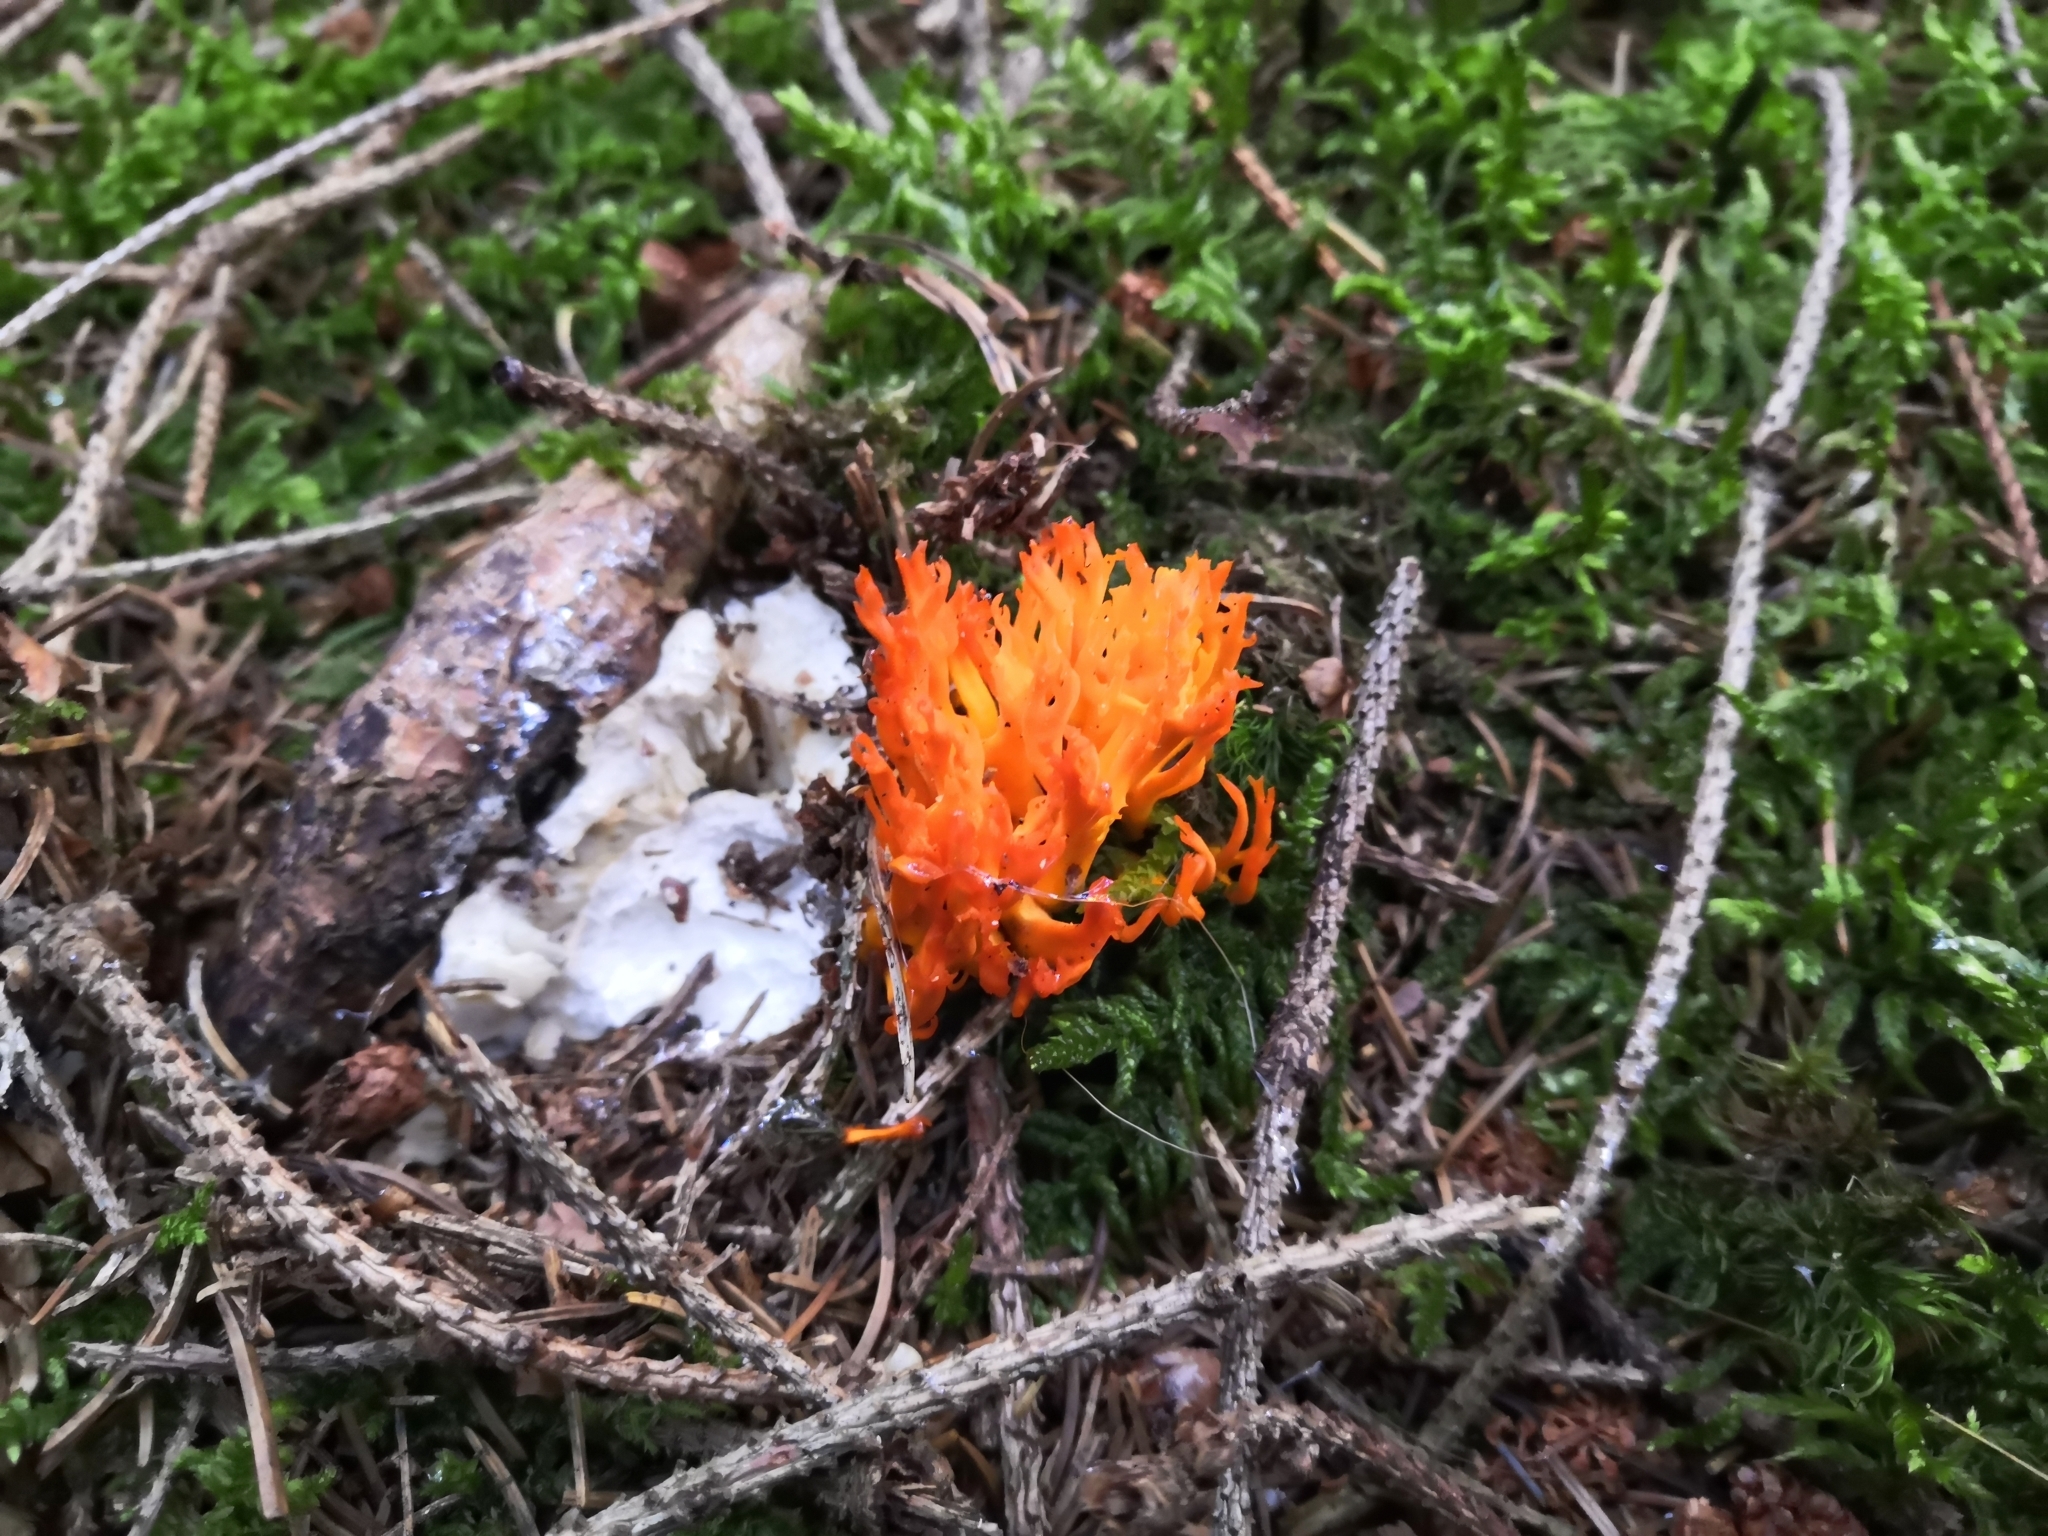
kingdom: Fungi
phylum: Basidiomycota
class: Dacrymycetes
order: Dacrymycetales
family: Dacrymycetaceae
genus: Calocera
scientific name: Calocera viscosa
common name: Yellow stagshorn
